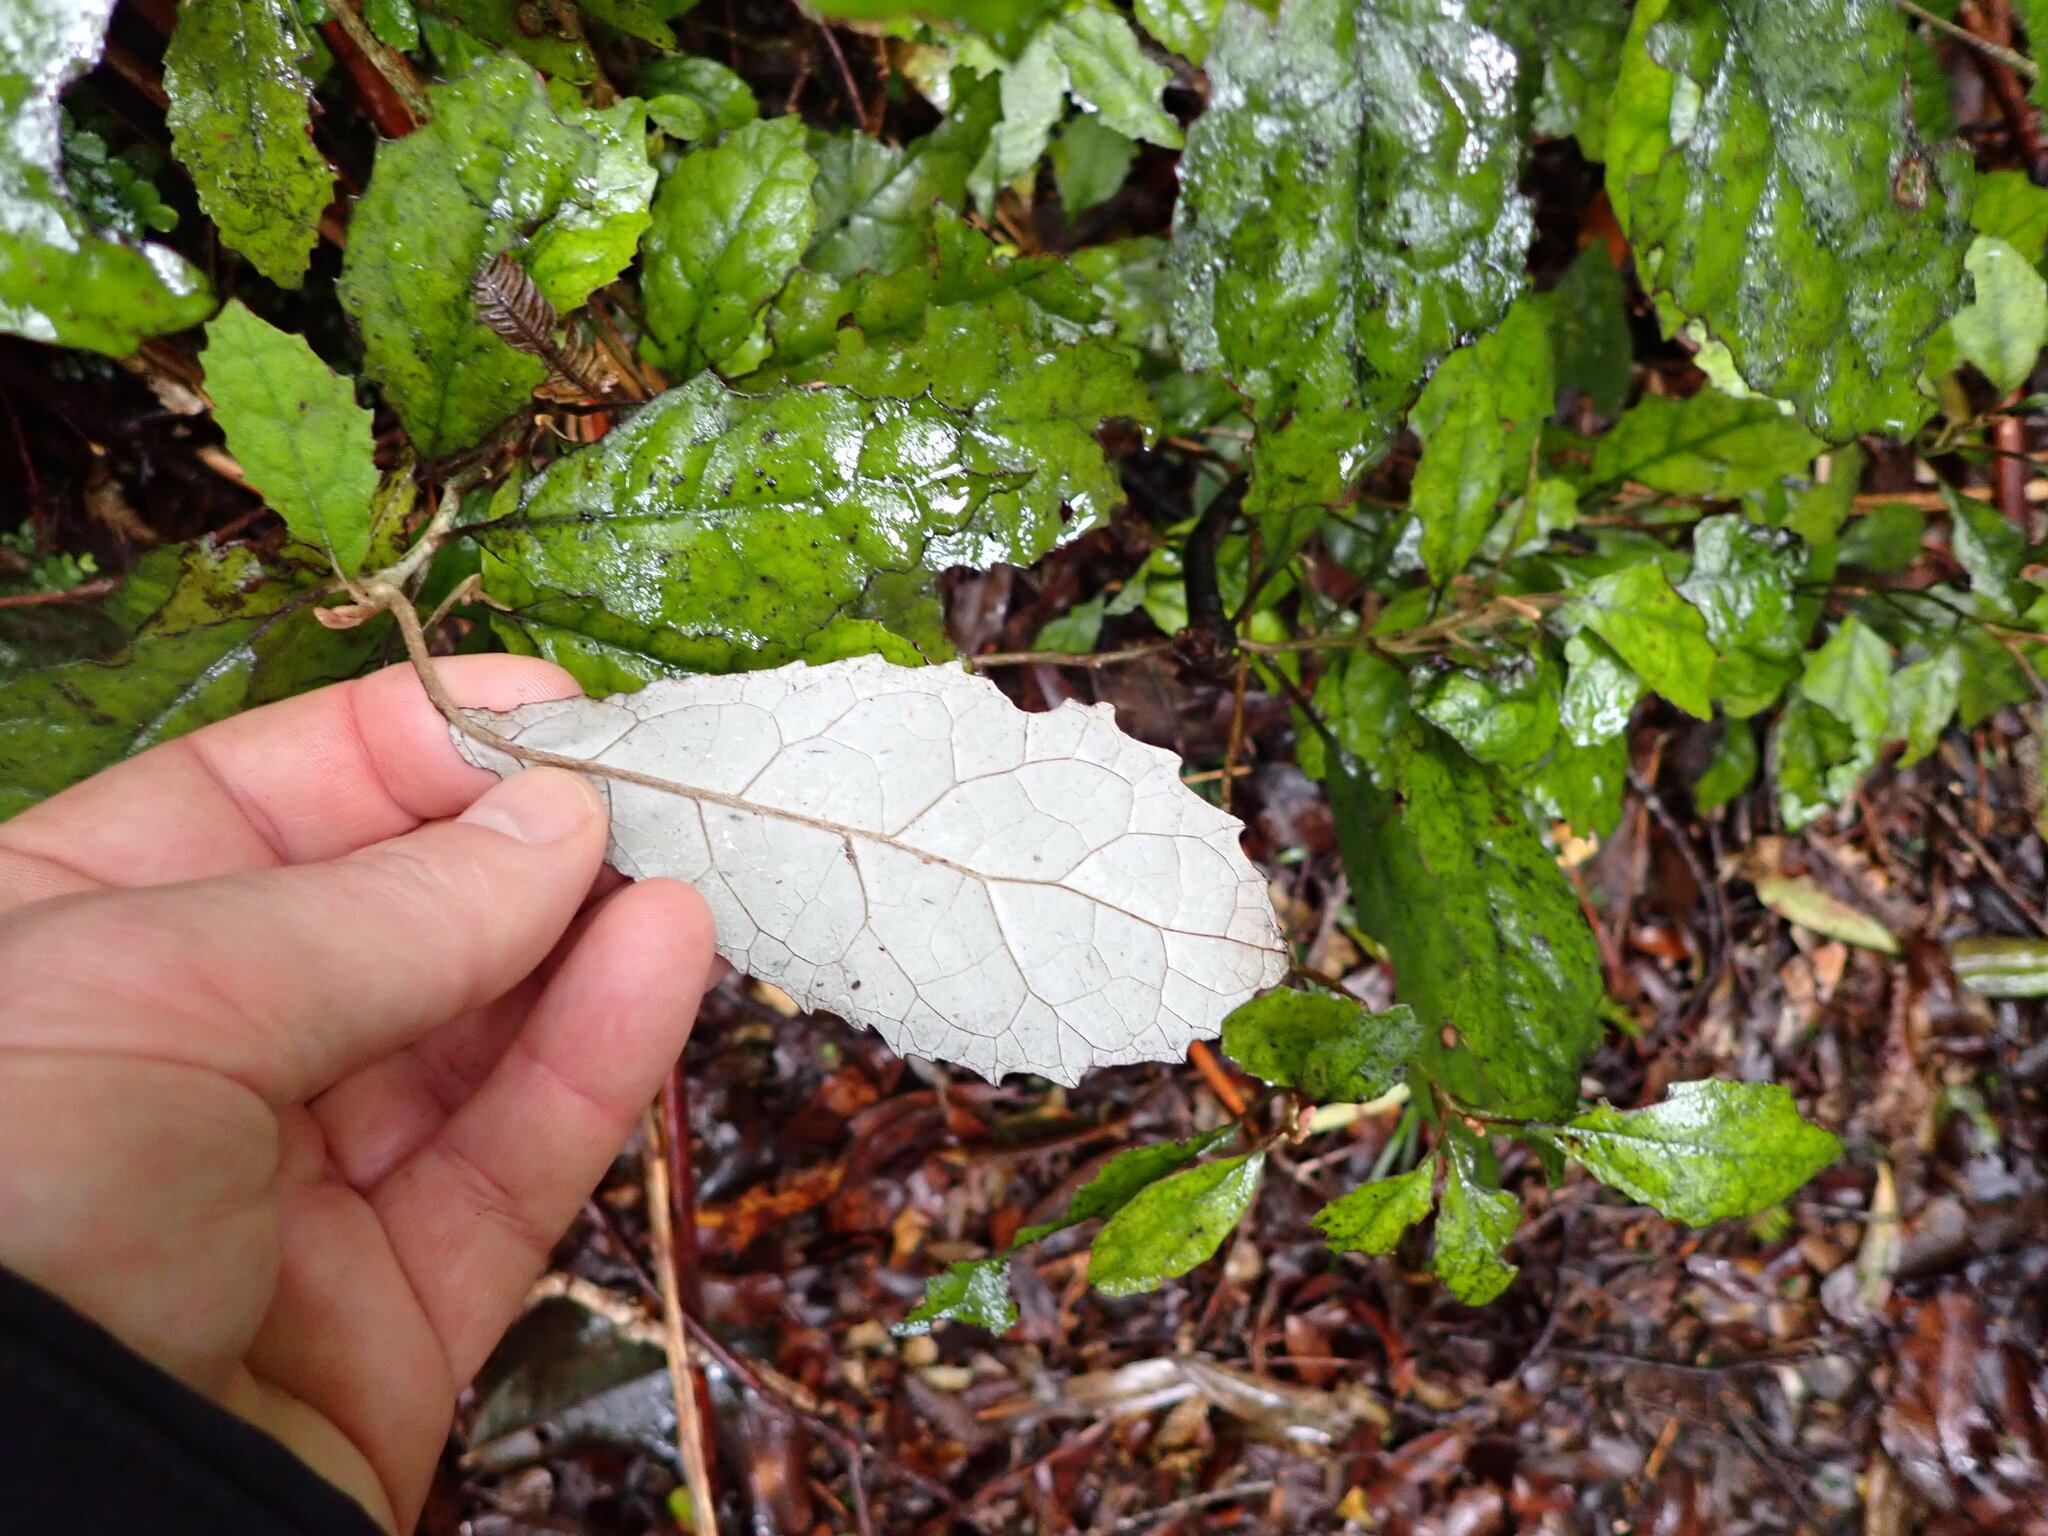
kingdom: Plantae
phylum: Tracheophyta
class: Magnoliopsida
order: Asterales
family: Asteraceae
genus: Olearia
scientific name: Olearia rani
